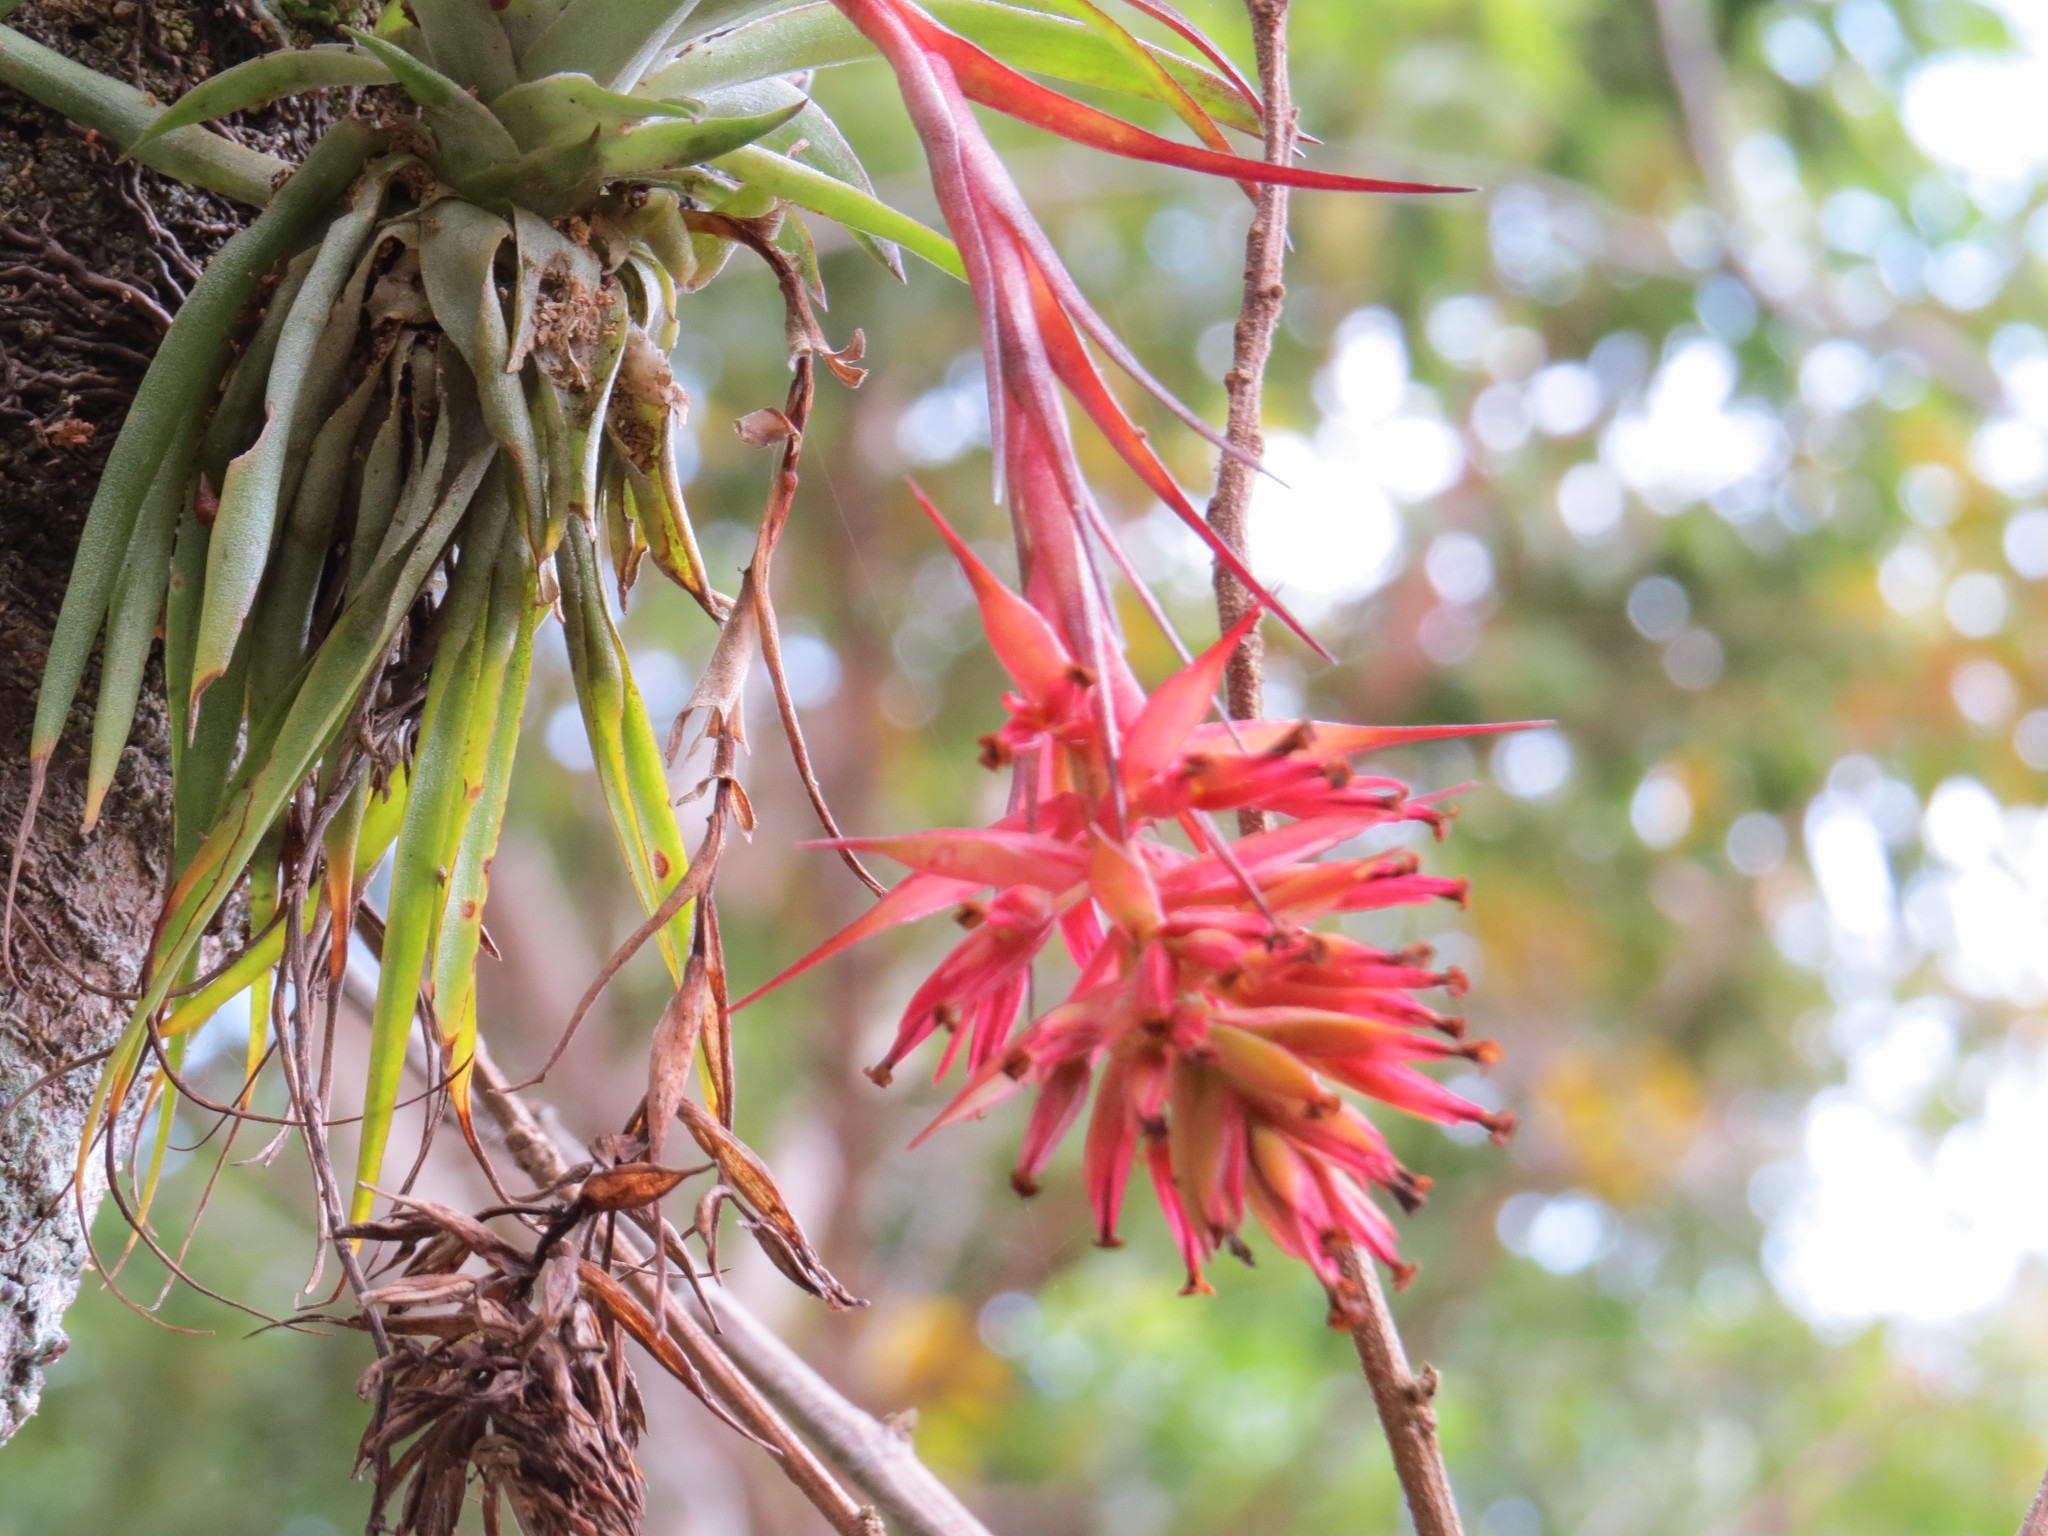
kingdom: Plantae
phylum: Tracheophyta
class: Liliopsida
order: Poales
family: Bromeliaceae
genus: Tillandsia
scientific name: Tillandsia geminiflora
